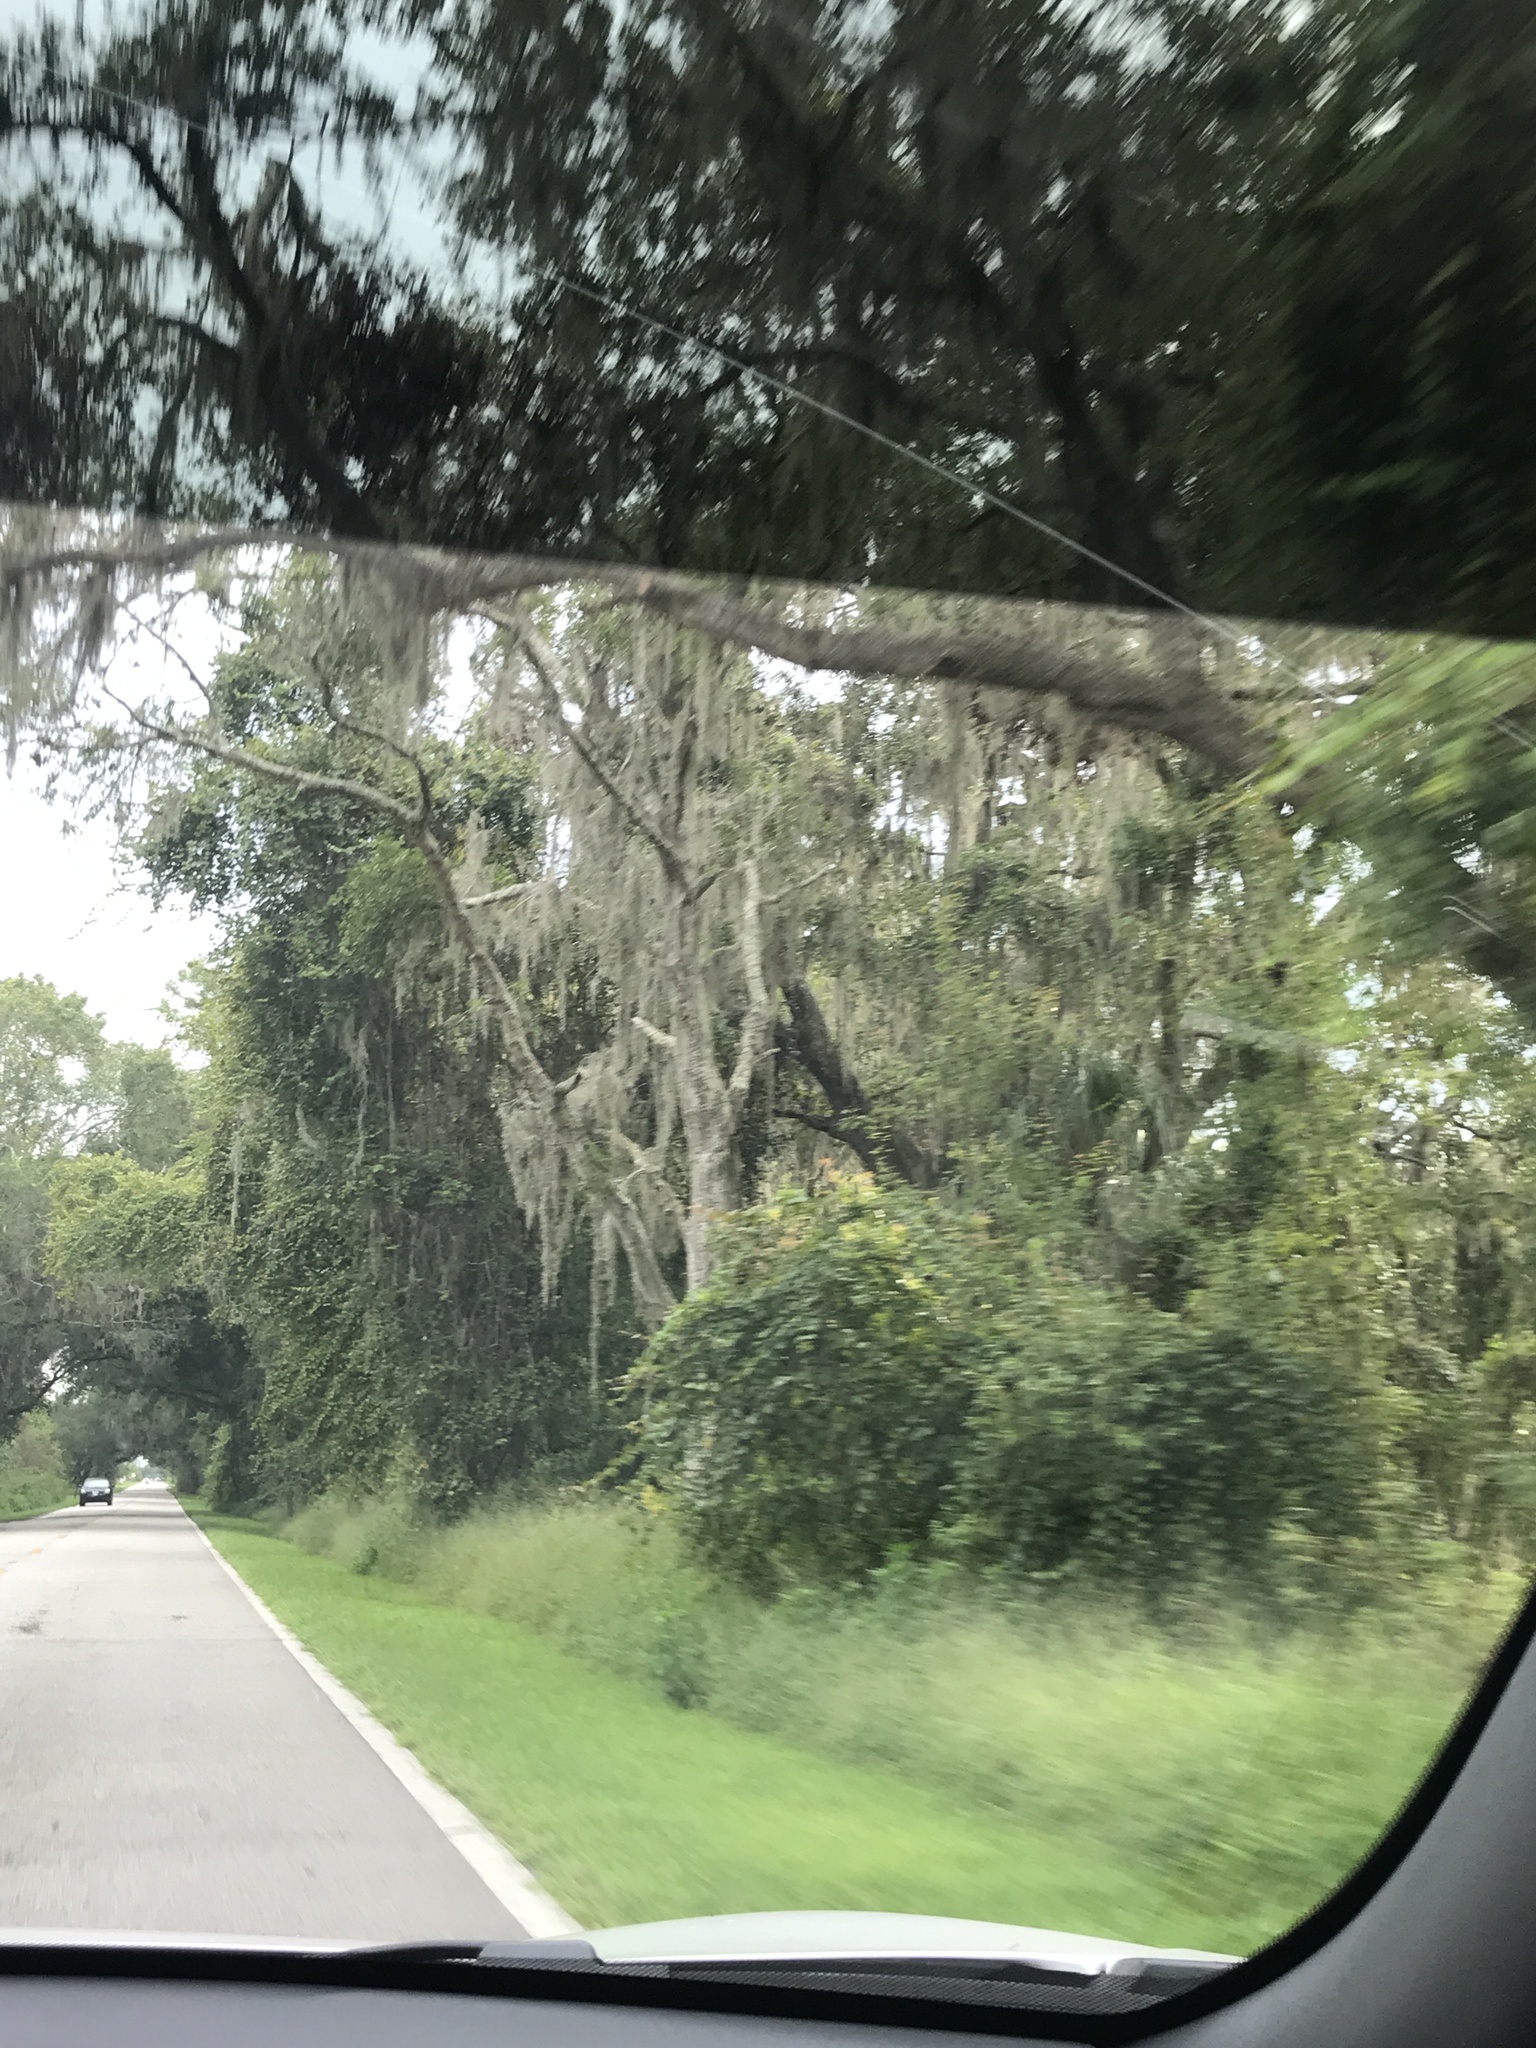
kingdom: Plantae
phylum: Tracheophyta
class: Liliopsida
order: Poales
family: Bromeliaceae
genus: Tillandsia
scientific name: Tillandsia usneoides
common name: Spanish moss
